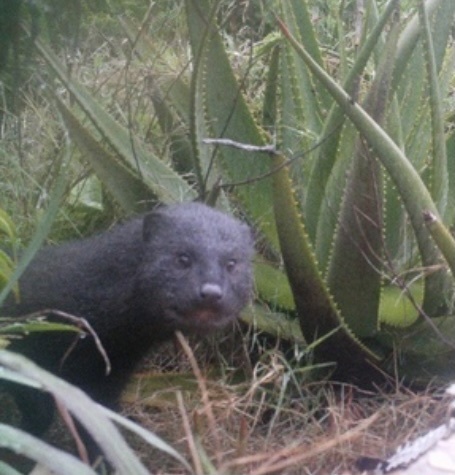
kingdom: Animalia
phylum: Chordata
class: Mammalia
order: Carnivora
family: Herpestidae
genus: Atilax
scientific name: Atilax paludinosus
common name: Marsh mongoose
